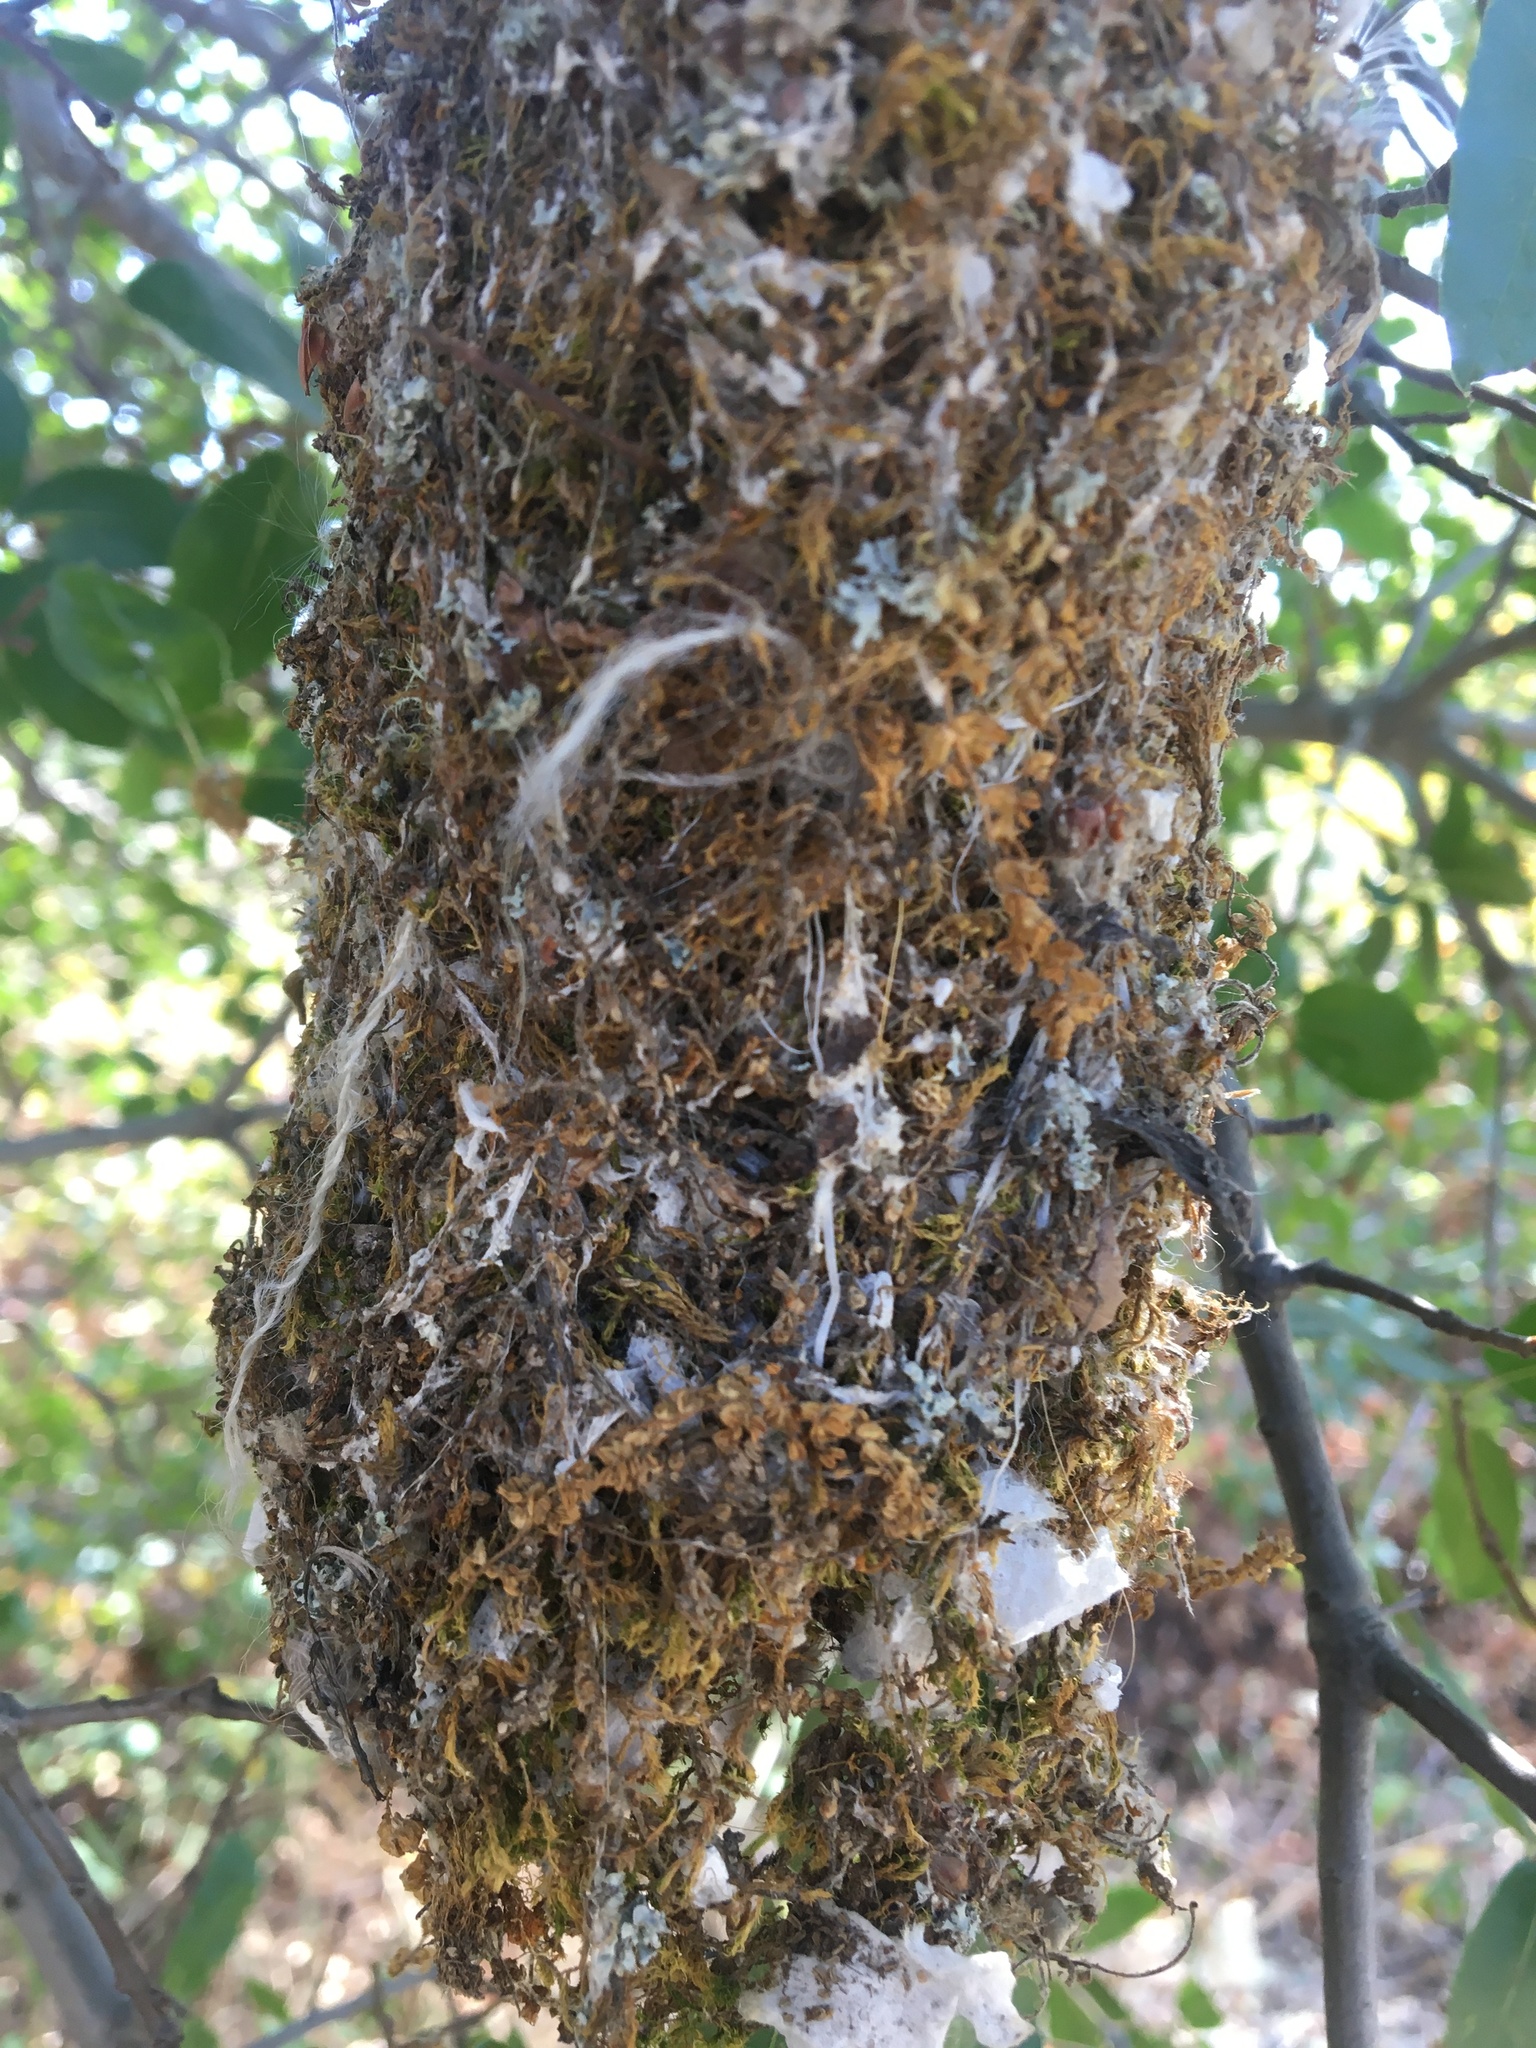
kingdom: Animalia
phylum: Chordata
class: Aves
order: Passeriformes
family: Aegithalidae
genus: Psaltriparus
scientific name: Psaltriparus minimus
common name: American bushtit
